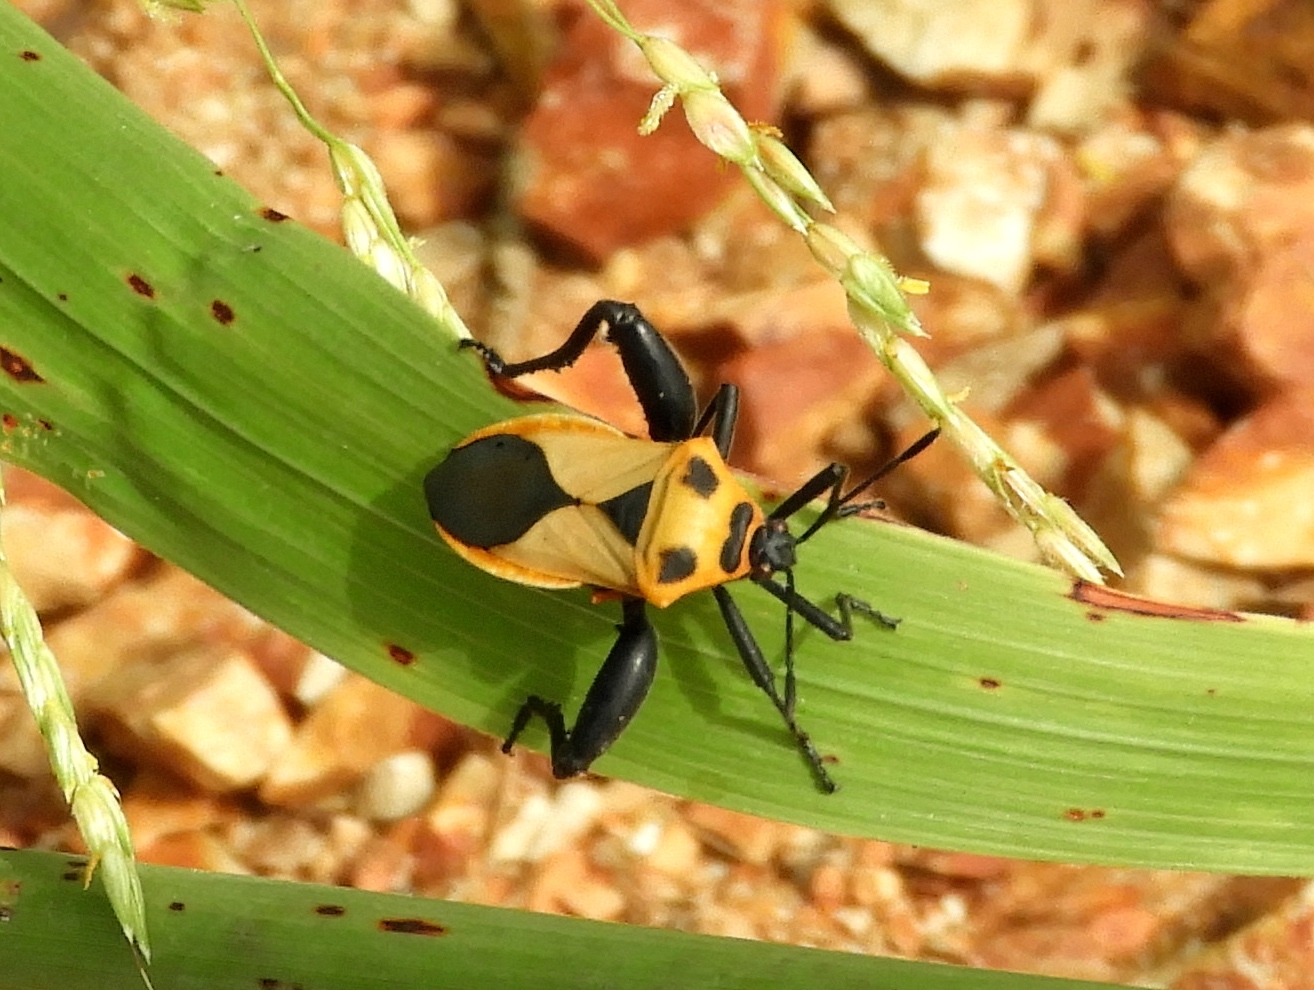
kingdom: Animalia
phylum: Arthropoda
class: Insecta
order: Hemiptera
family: Coreidae
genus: Sagotylus
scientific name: Sagotylus confluens
